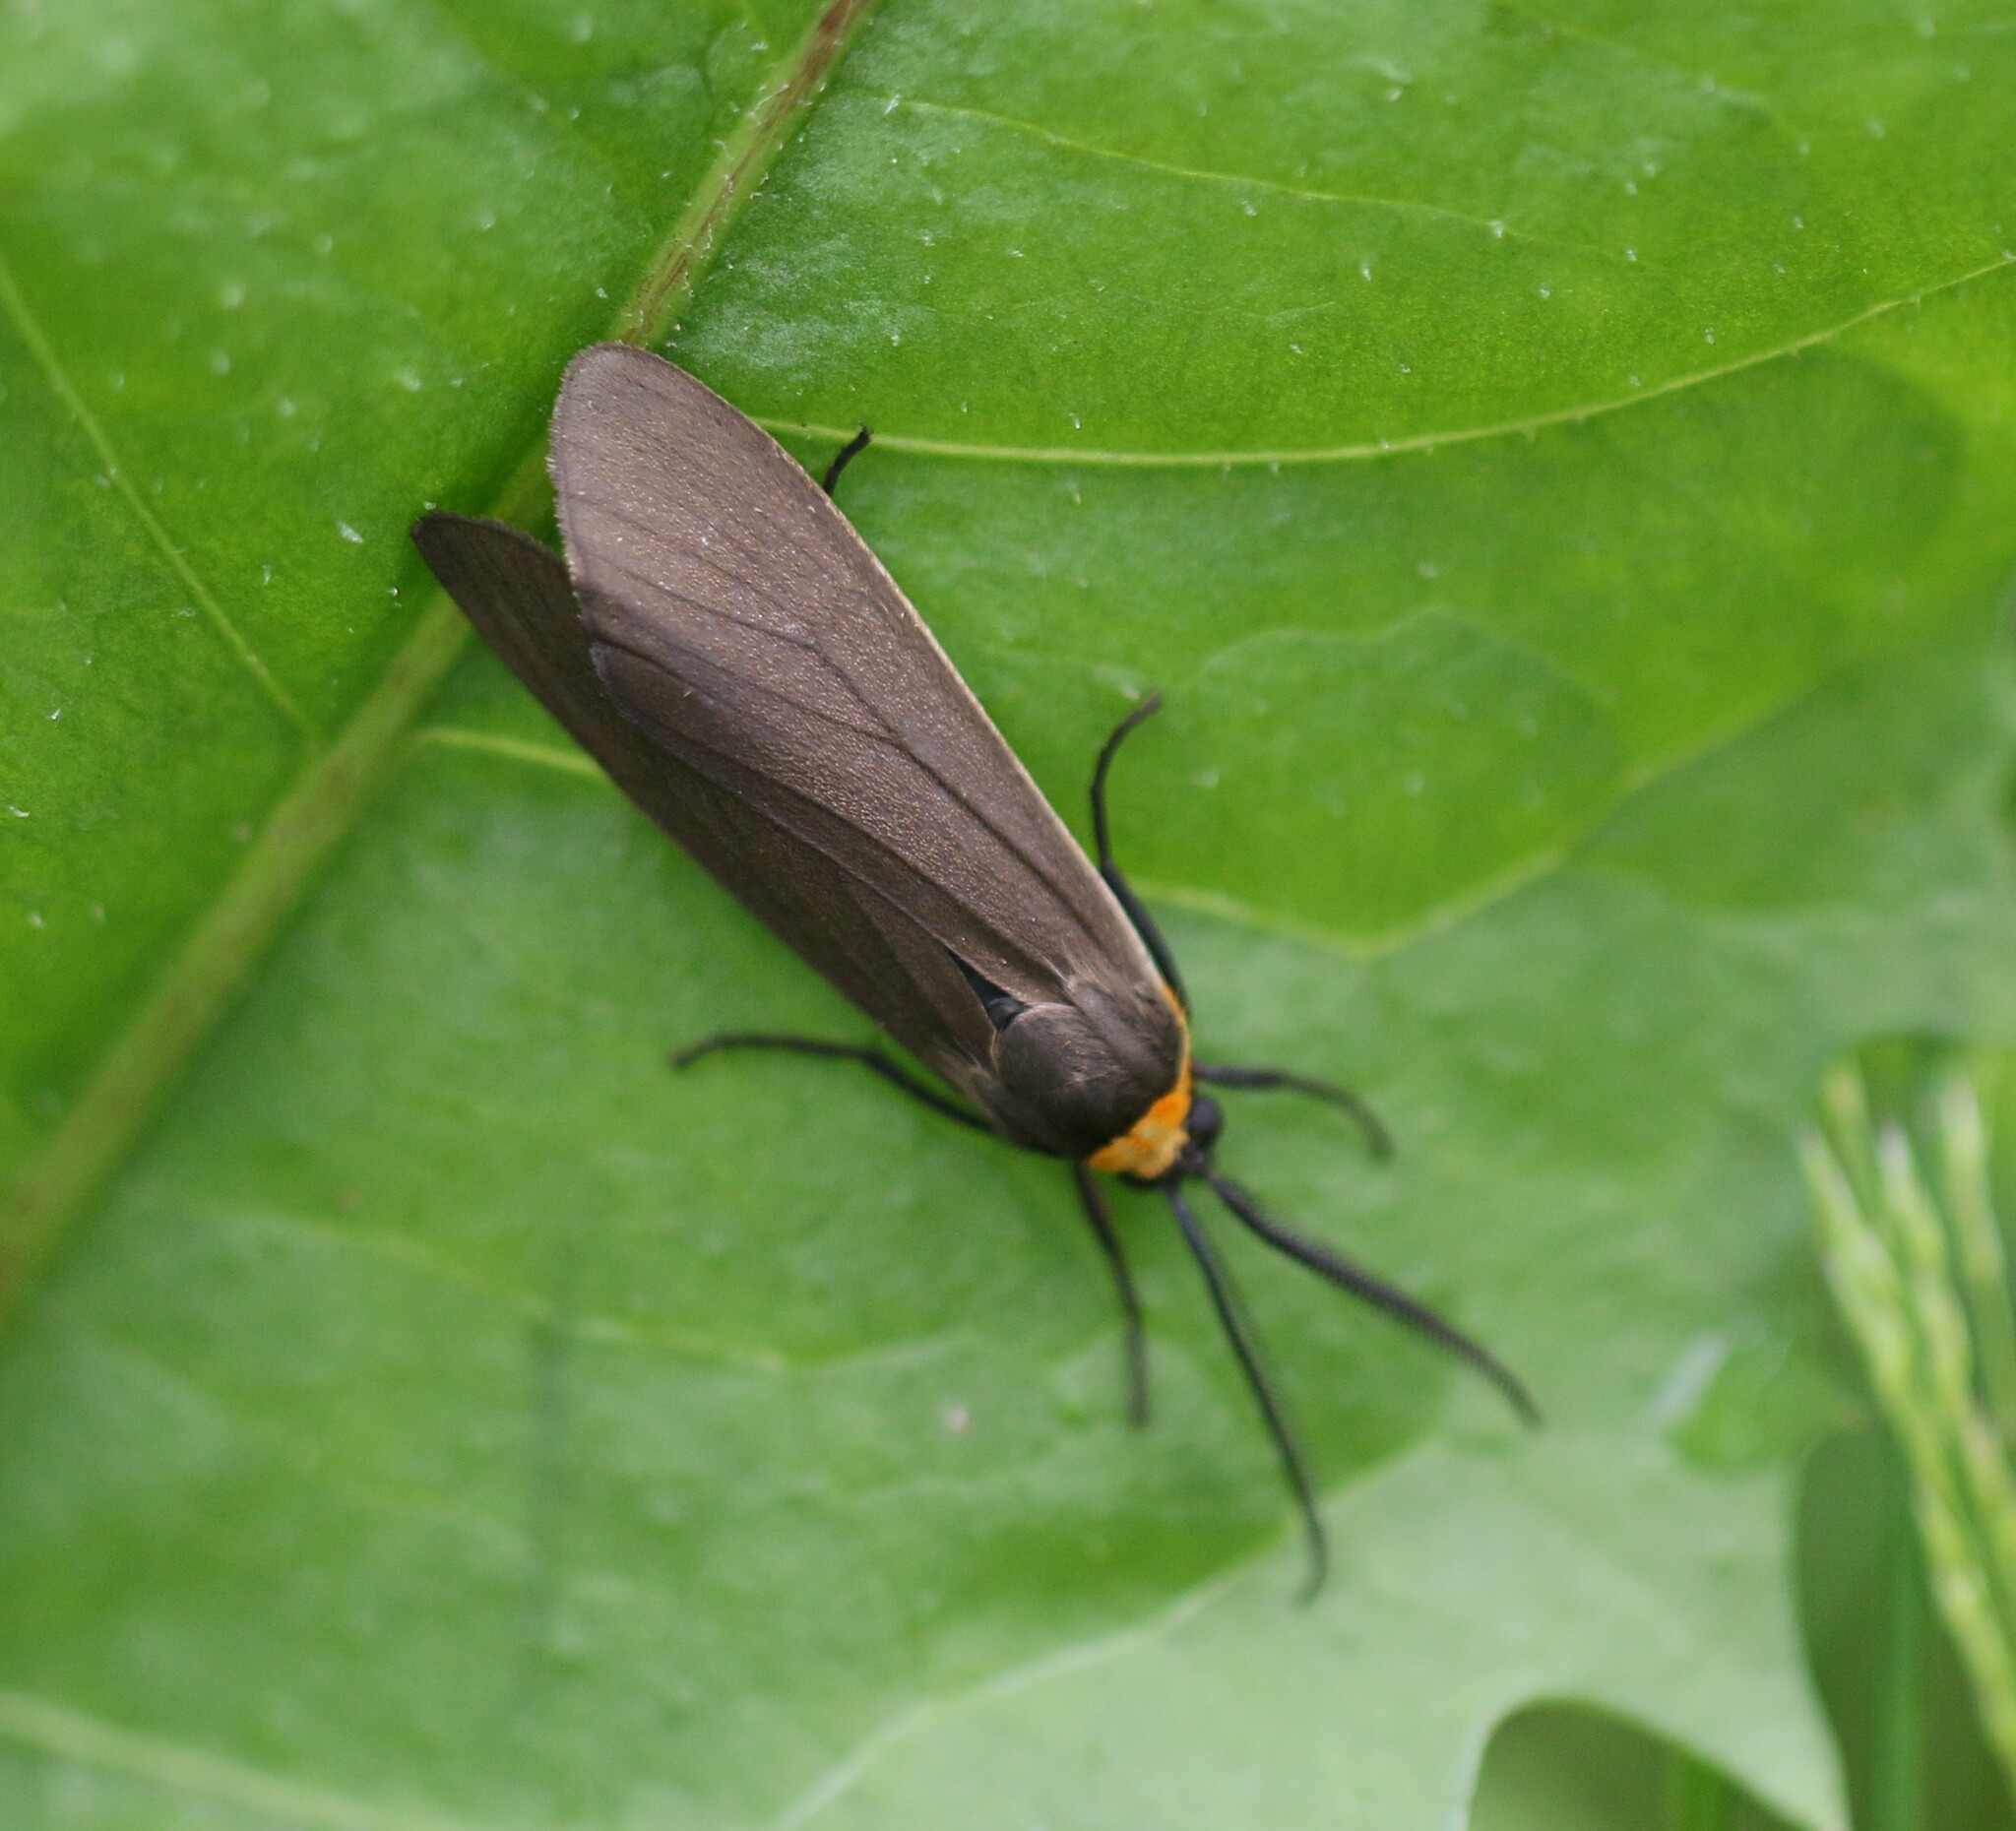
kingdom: Animalia
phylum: Arthropoda
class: Insecta
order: Lepidoptera
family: Erebidae
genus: Cisseps
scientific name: Cisseps fulvicollis
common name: Yellow-collared scape moth
